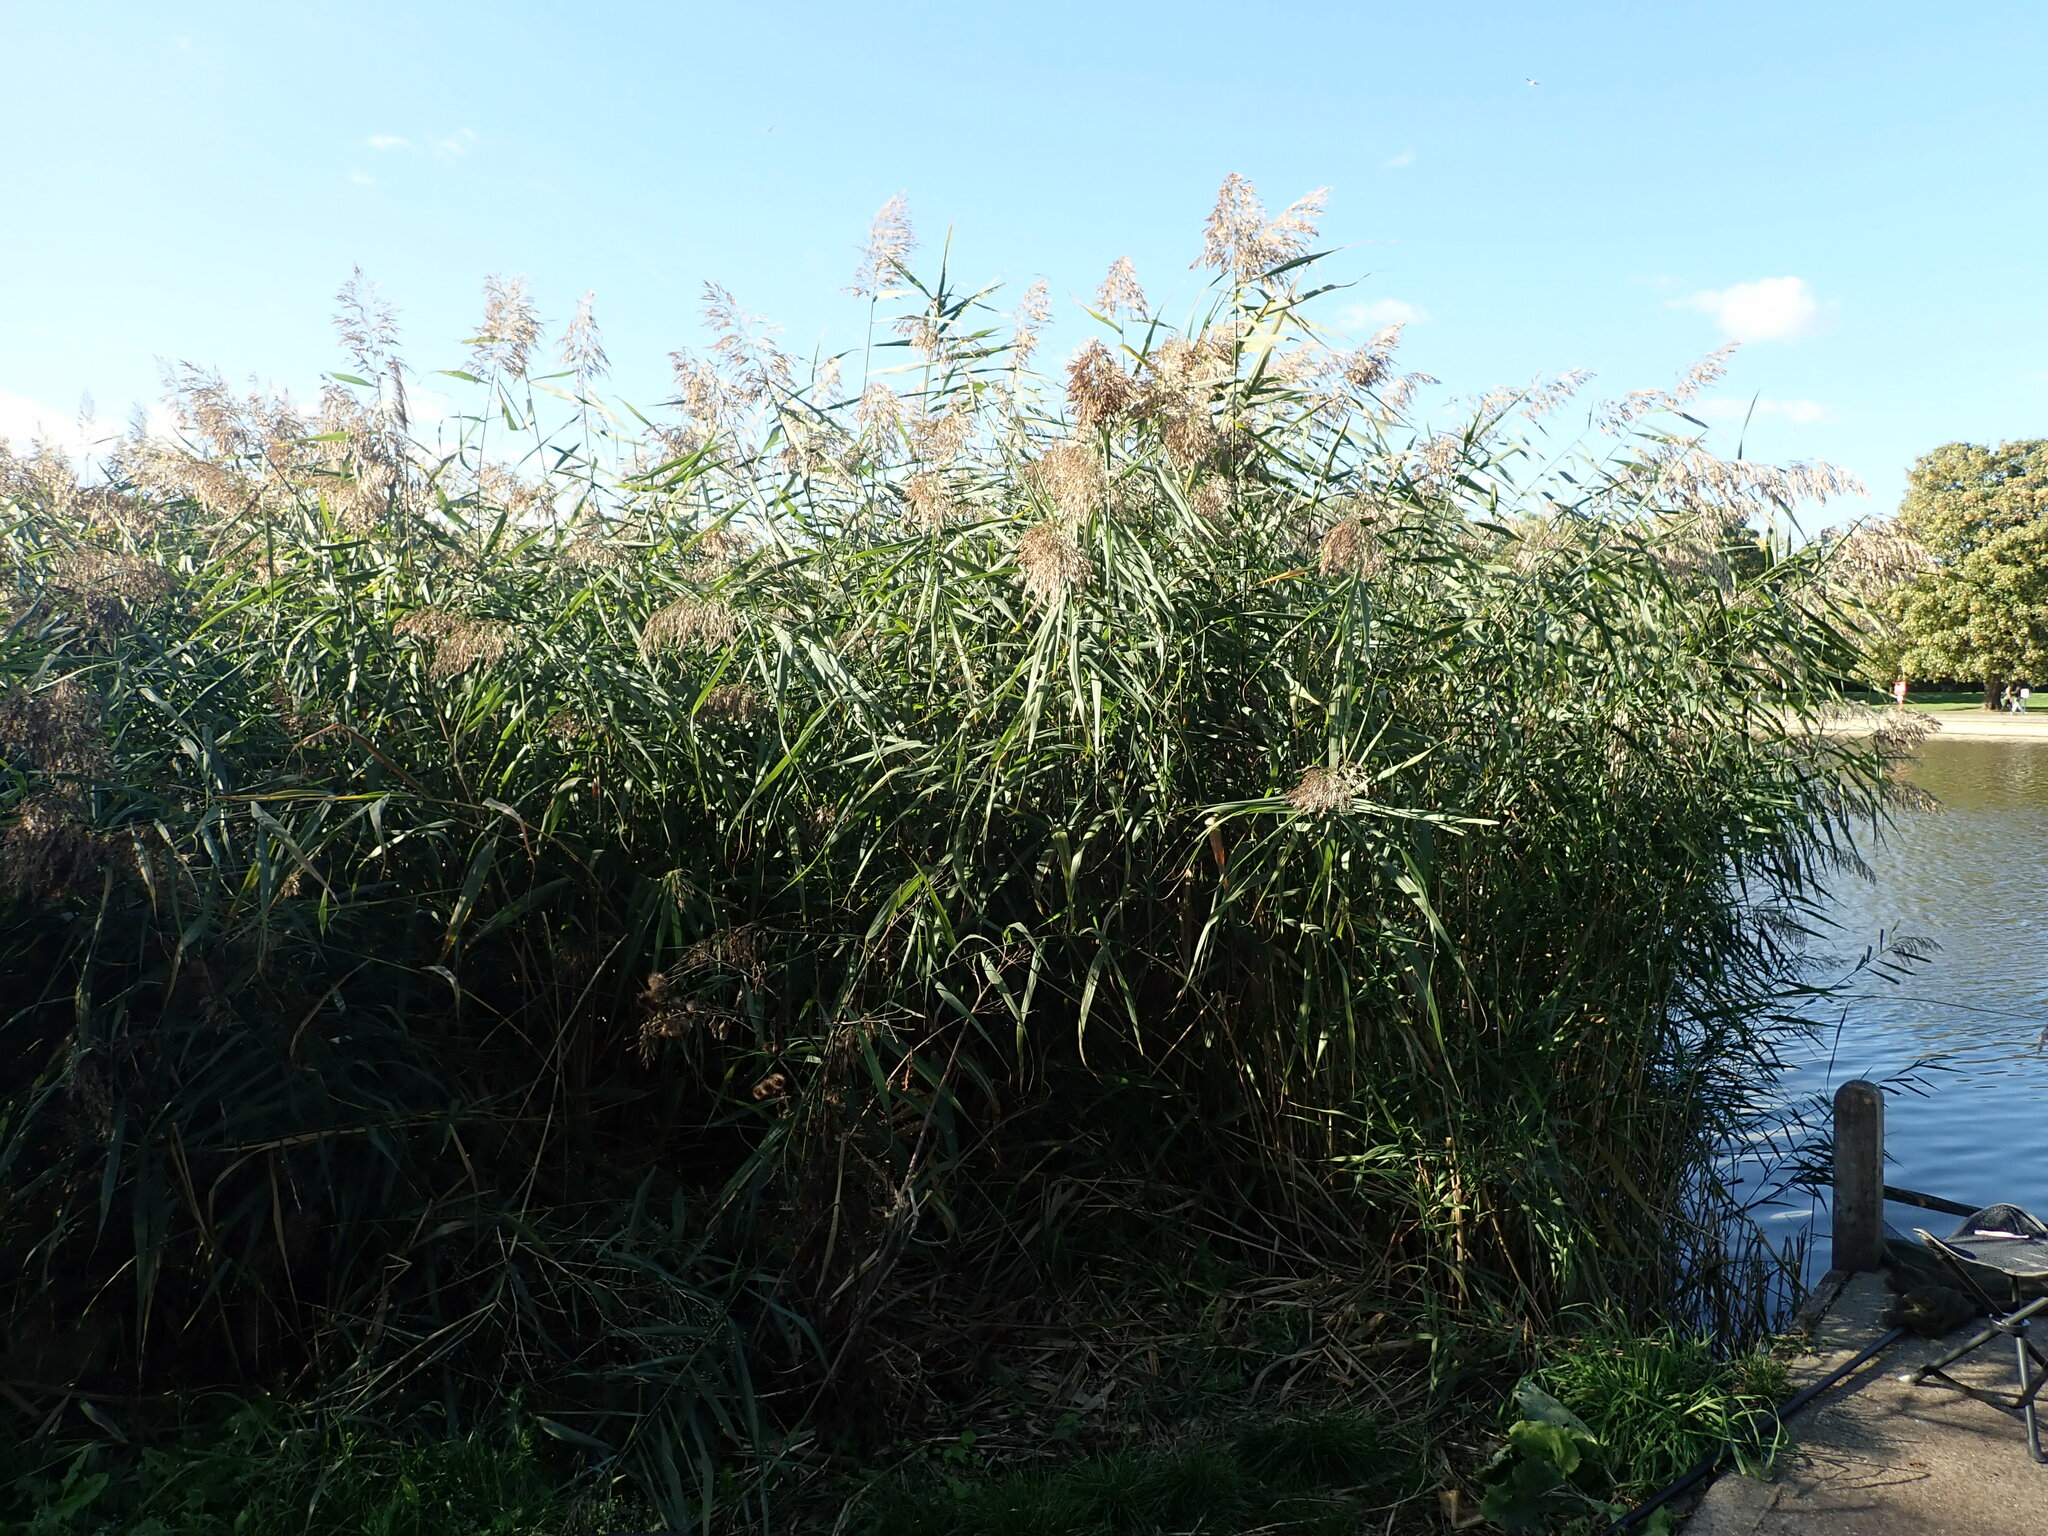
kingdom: Plantae
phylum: Tracheophyta
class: Liliopsida
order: Poales
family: Poaceae
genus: Phragmites
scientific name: Phragmites australis
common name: Common reed
